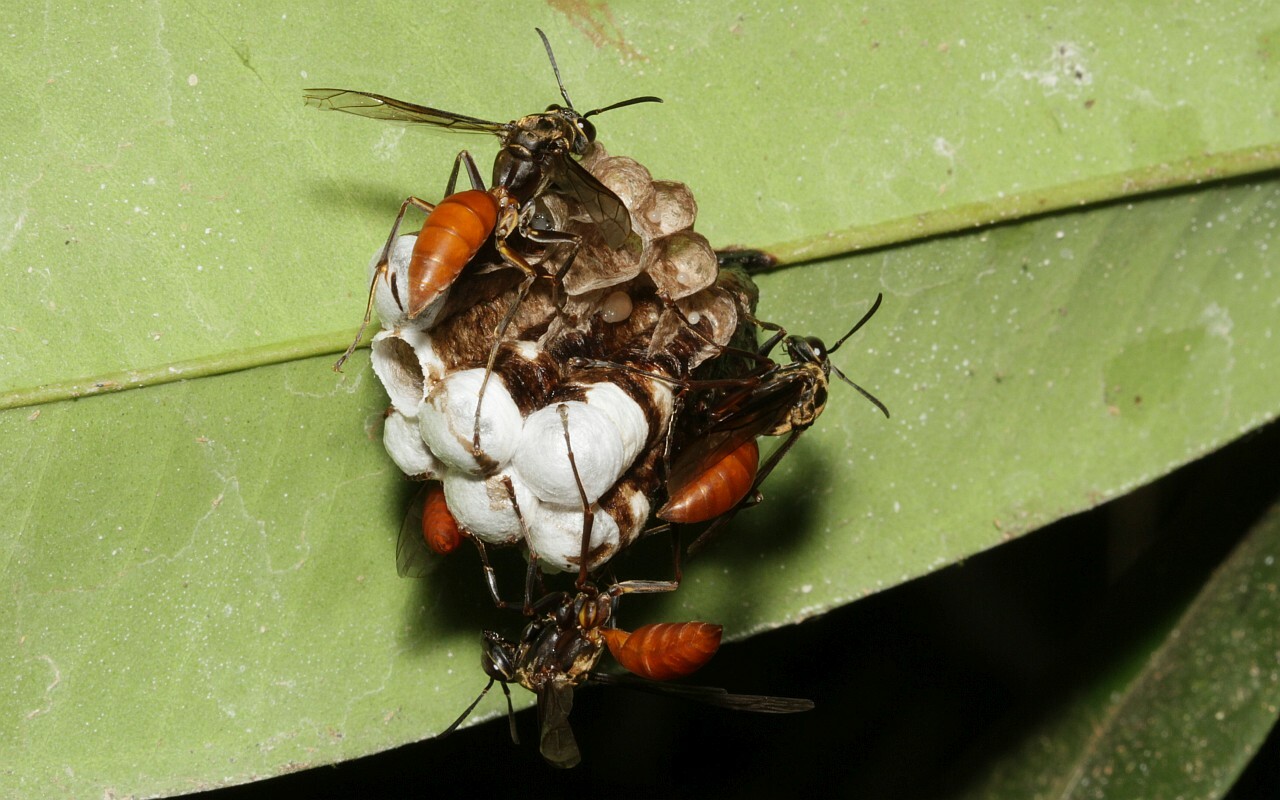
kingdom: Animalia
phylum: Arthropoda
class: Insecta
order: Hymenoptera
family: Eumenidae
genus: Polistes
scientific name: Polistes occipitalis
